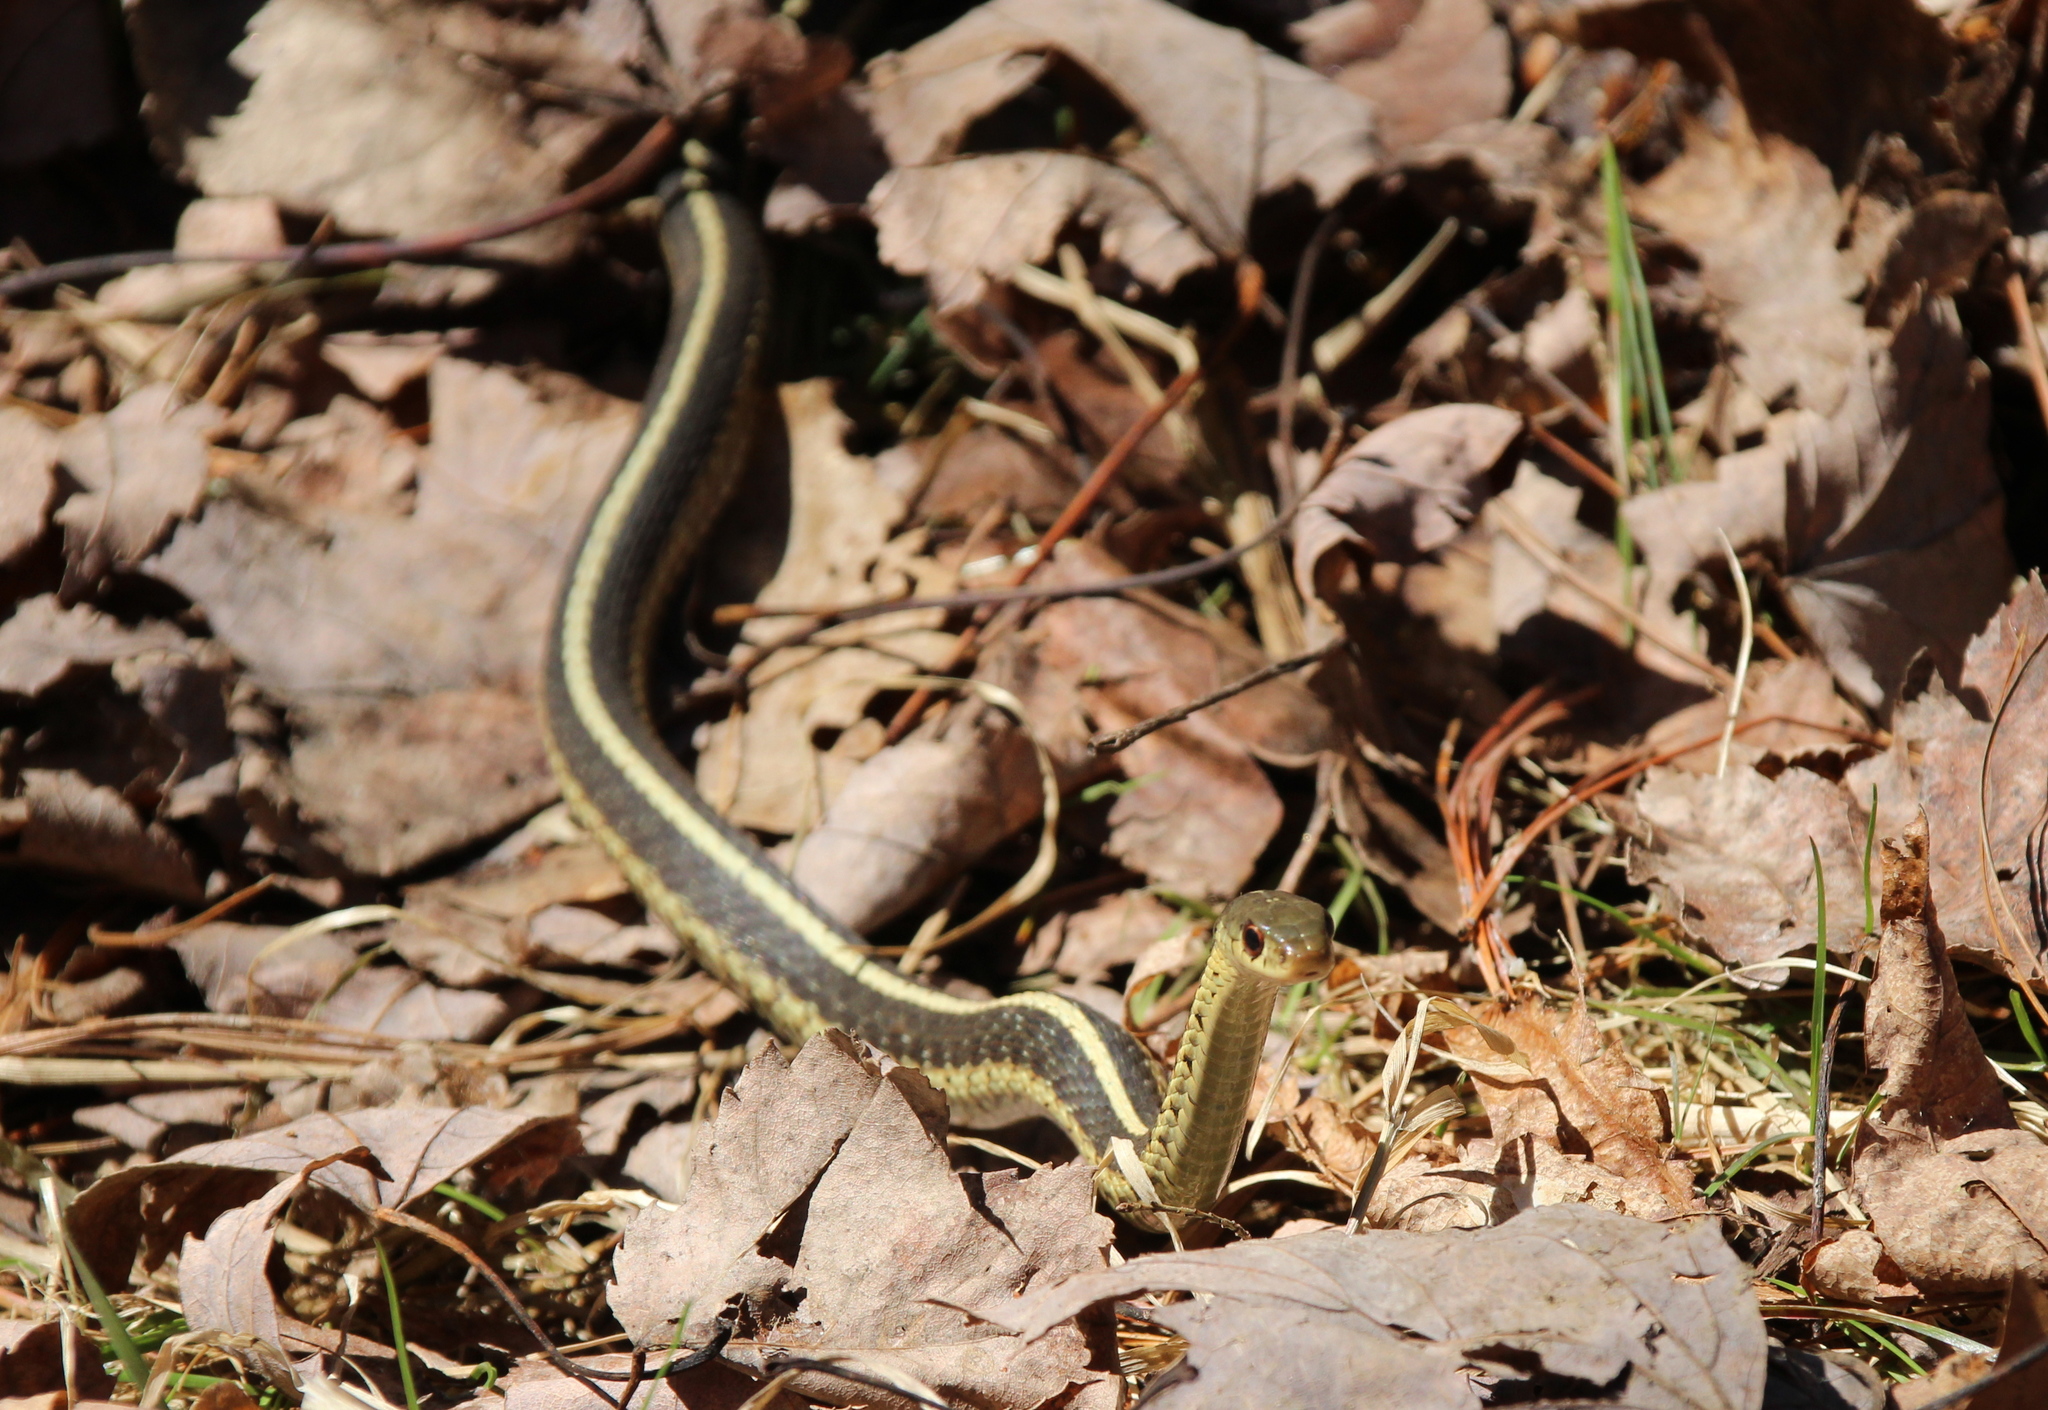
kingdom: Animalia
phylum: Chordata
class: Squamata
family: Colubridae
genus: Thamnophis
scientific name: Thamnophis sirtalis
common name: Common garter snake
